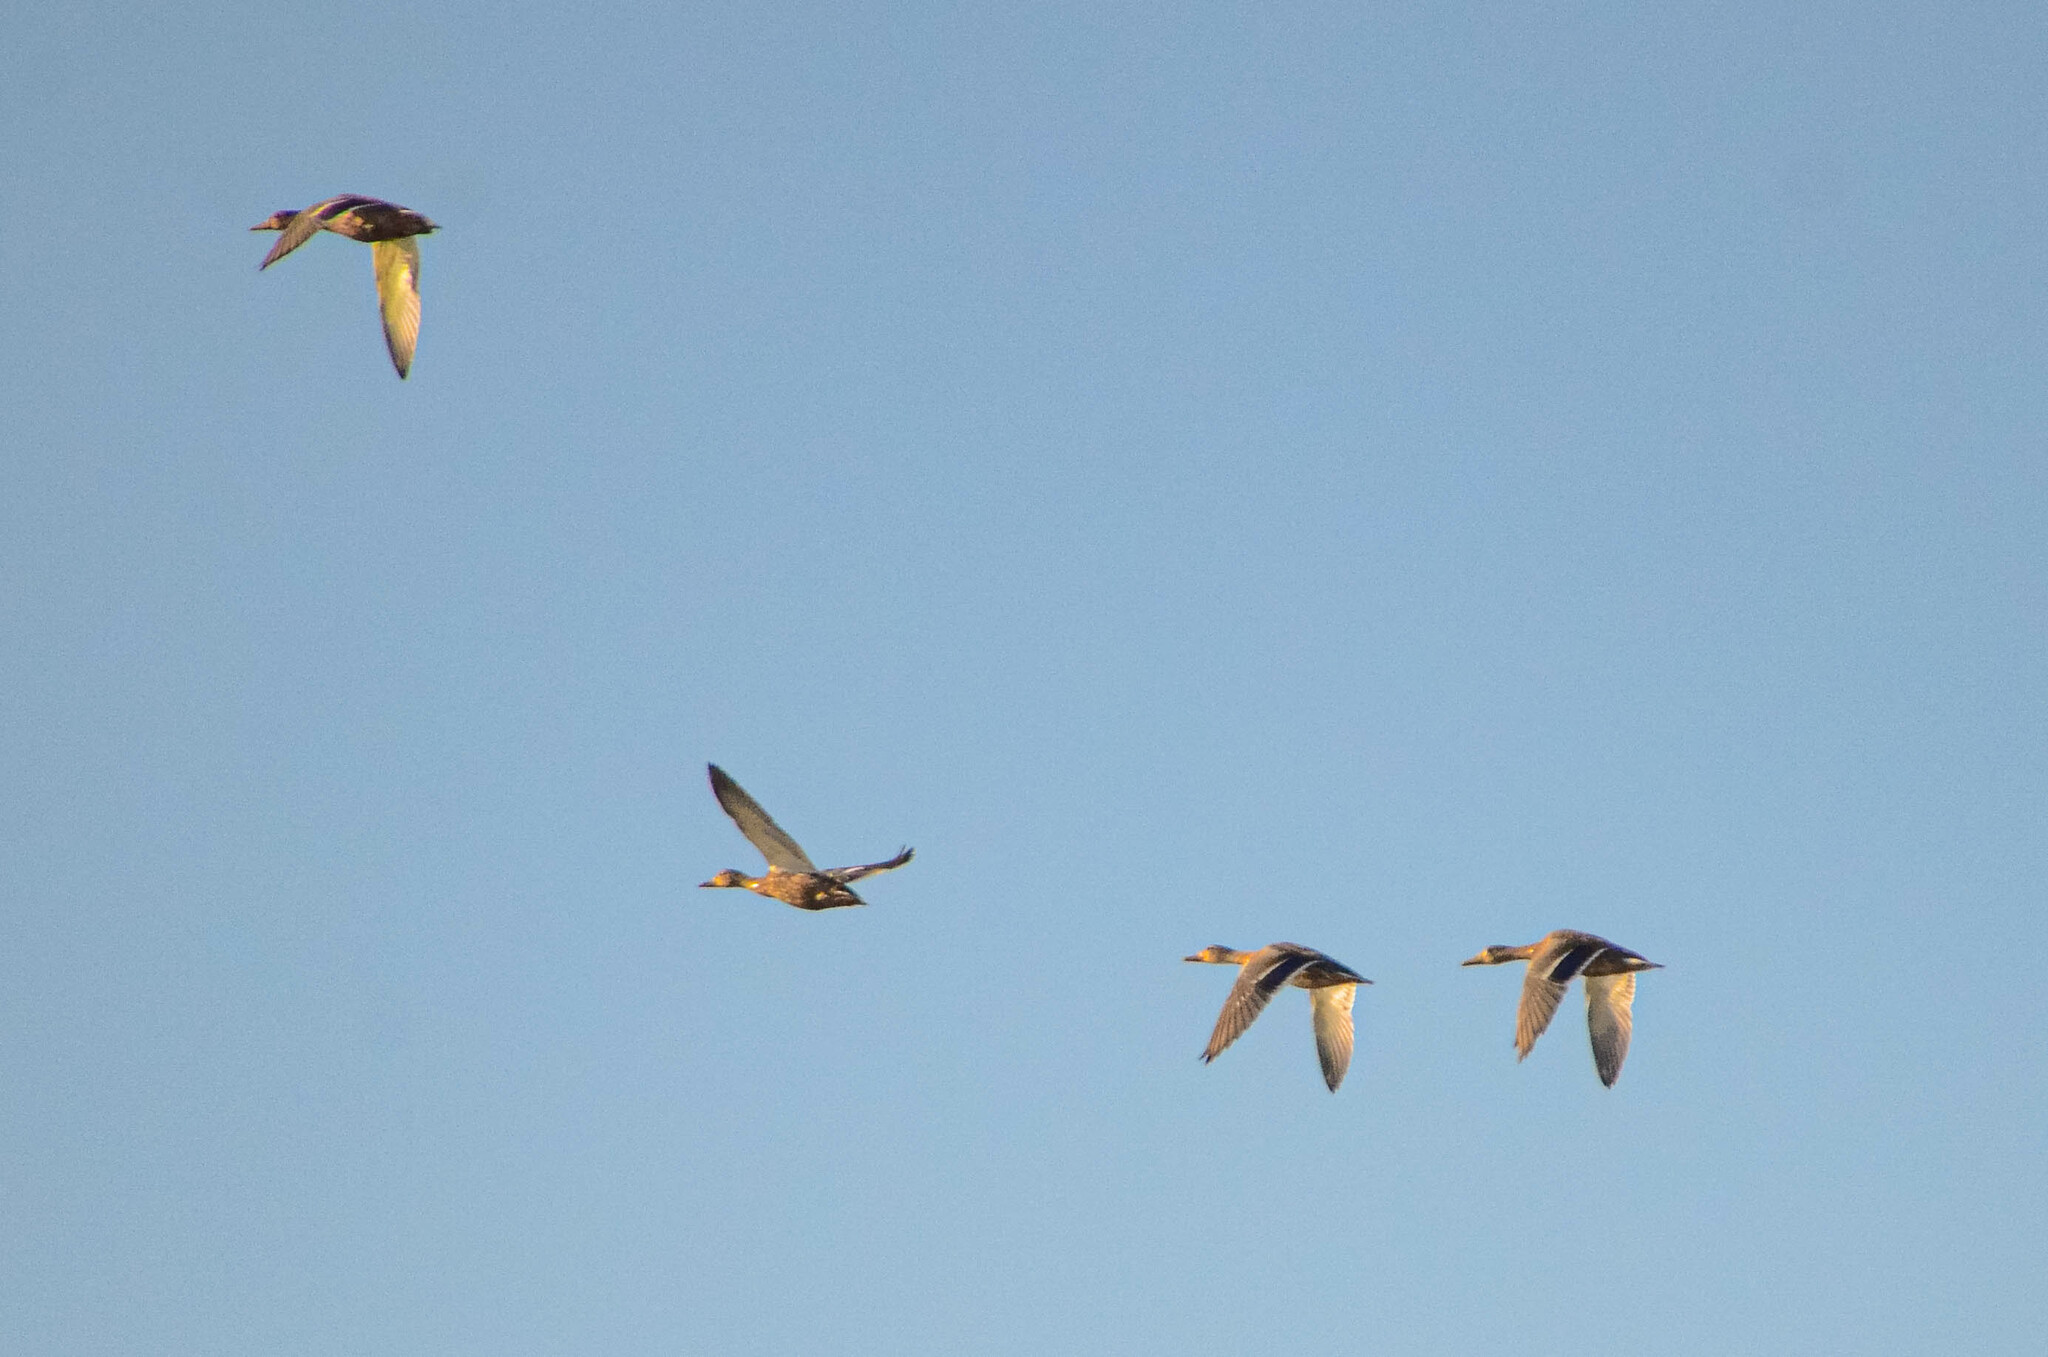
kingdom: Animalia
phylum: Chordata
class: Aves
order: Anseriformes
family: Anatidae
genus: Anas
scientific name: Anas platyrhynchos
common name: Mallard
